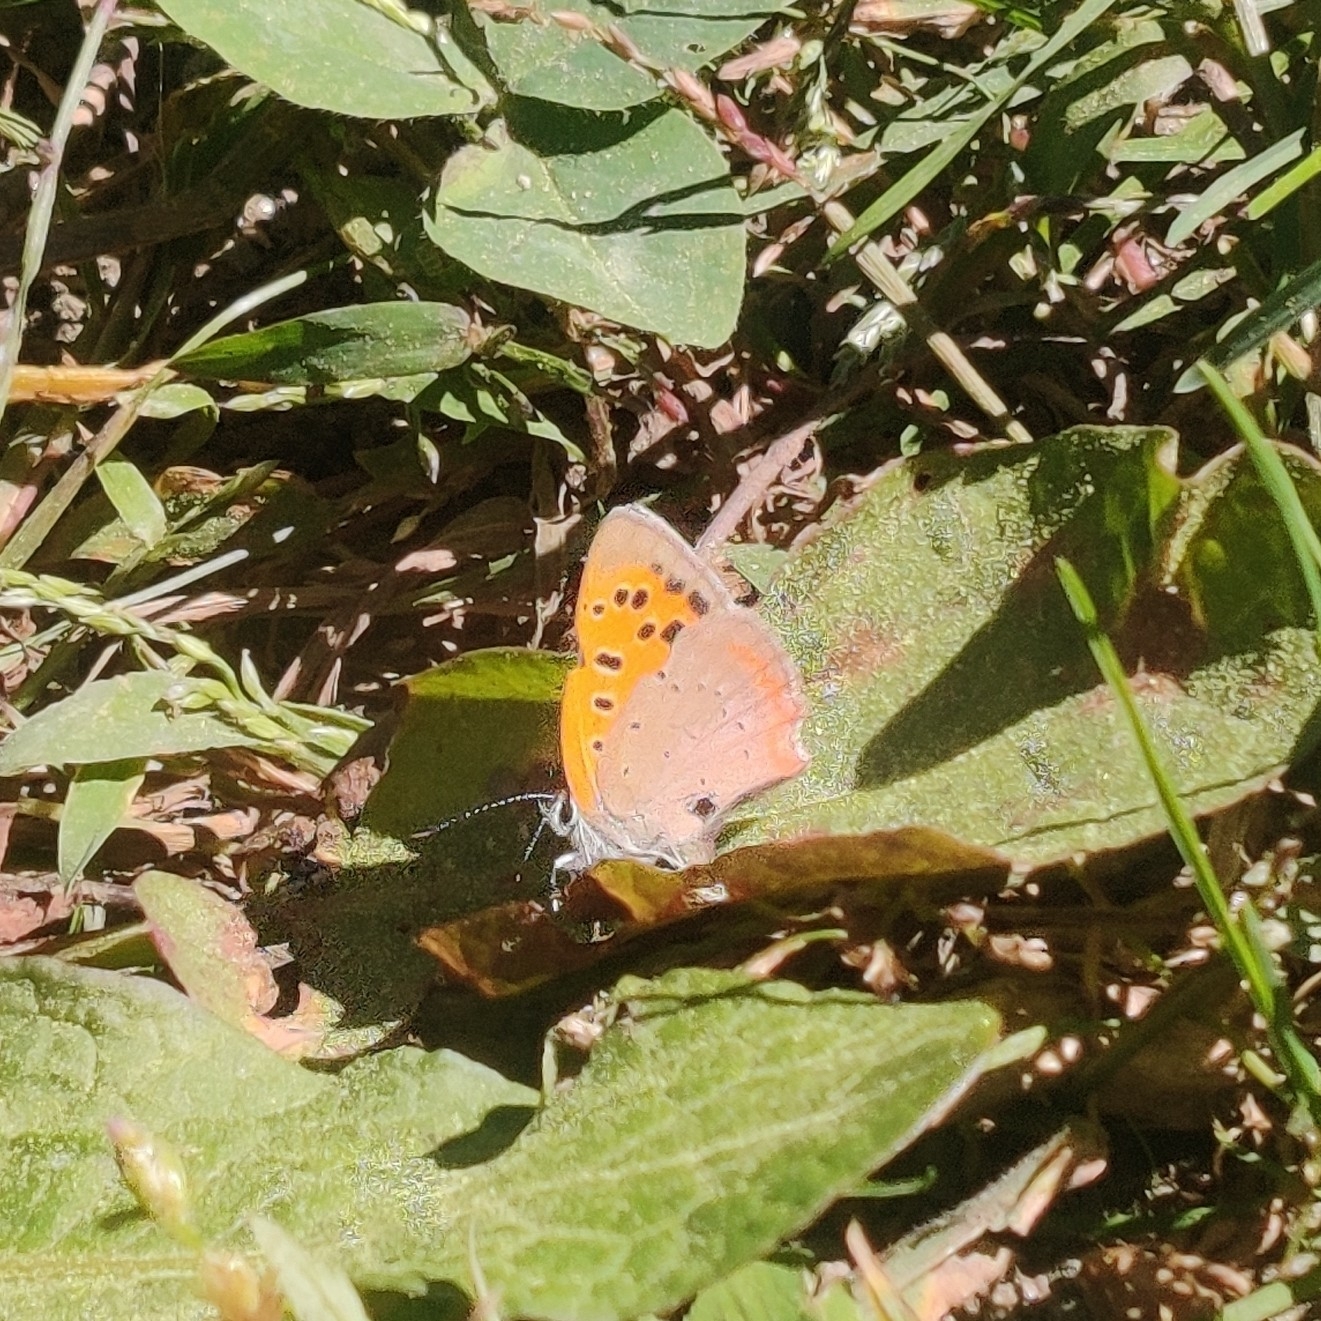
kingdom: Animalia
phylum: Arthropoda
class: Insecta
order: Lepidoptera
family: Lycaenidae
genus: Lycaena
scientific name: Lycaena phlaeas
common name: Small copper
